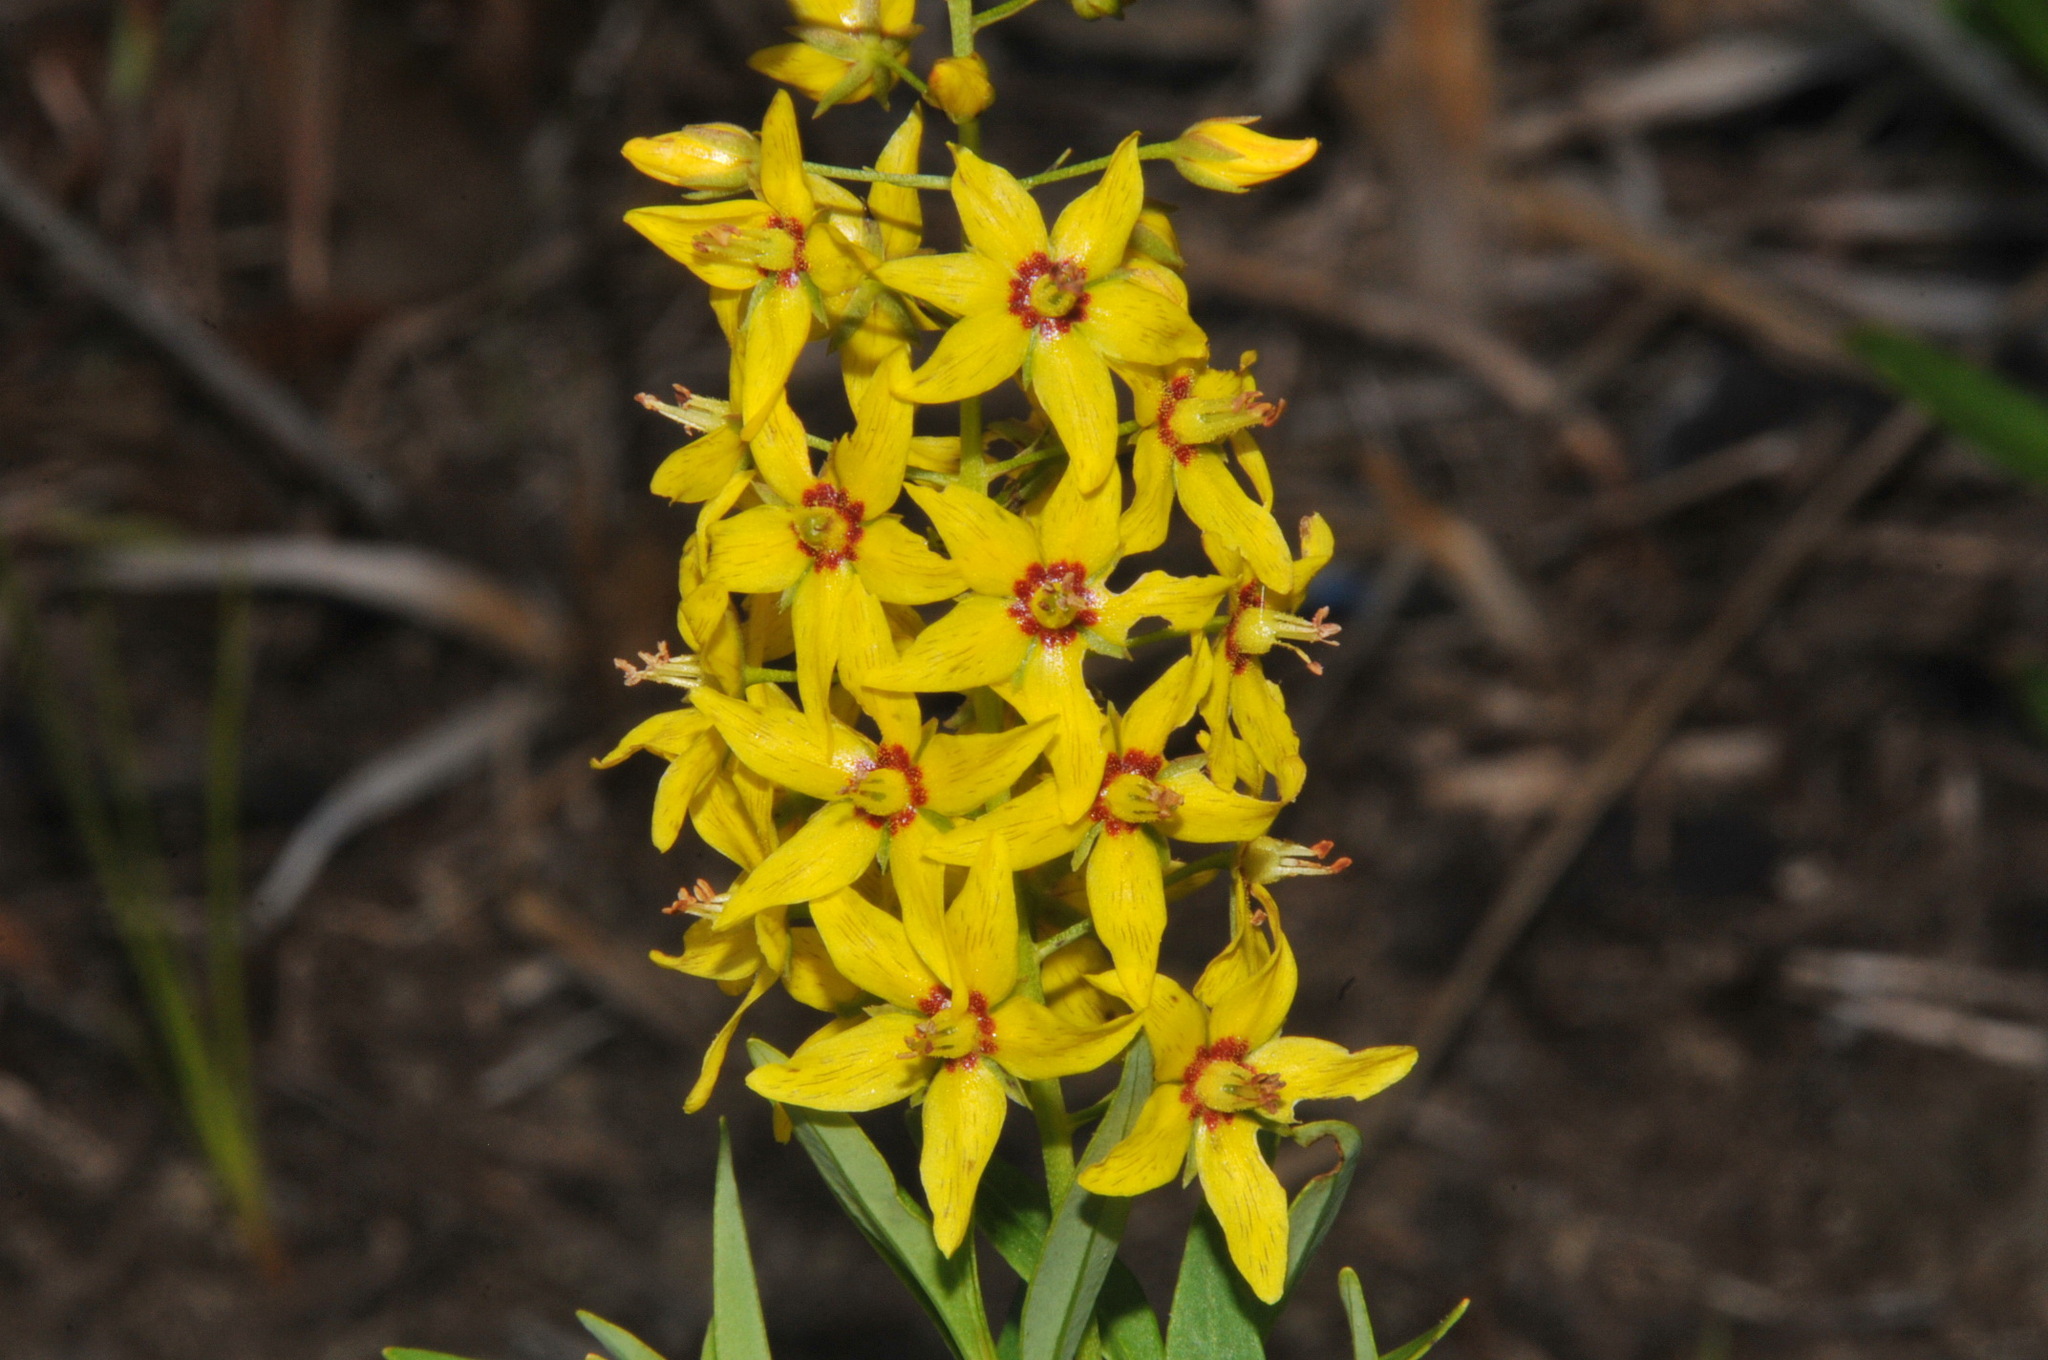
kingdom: Plantae
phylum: Tracheophyta
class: Magnoliopsida
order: Ericales
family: Primulaceae
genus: Lysimachia
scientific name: Lysimachia terrestris
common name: Lake loosestrife
